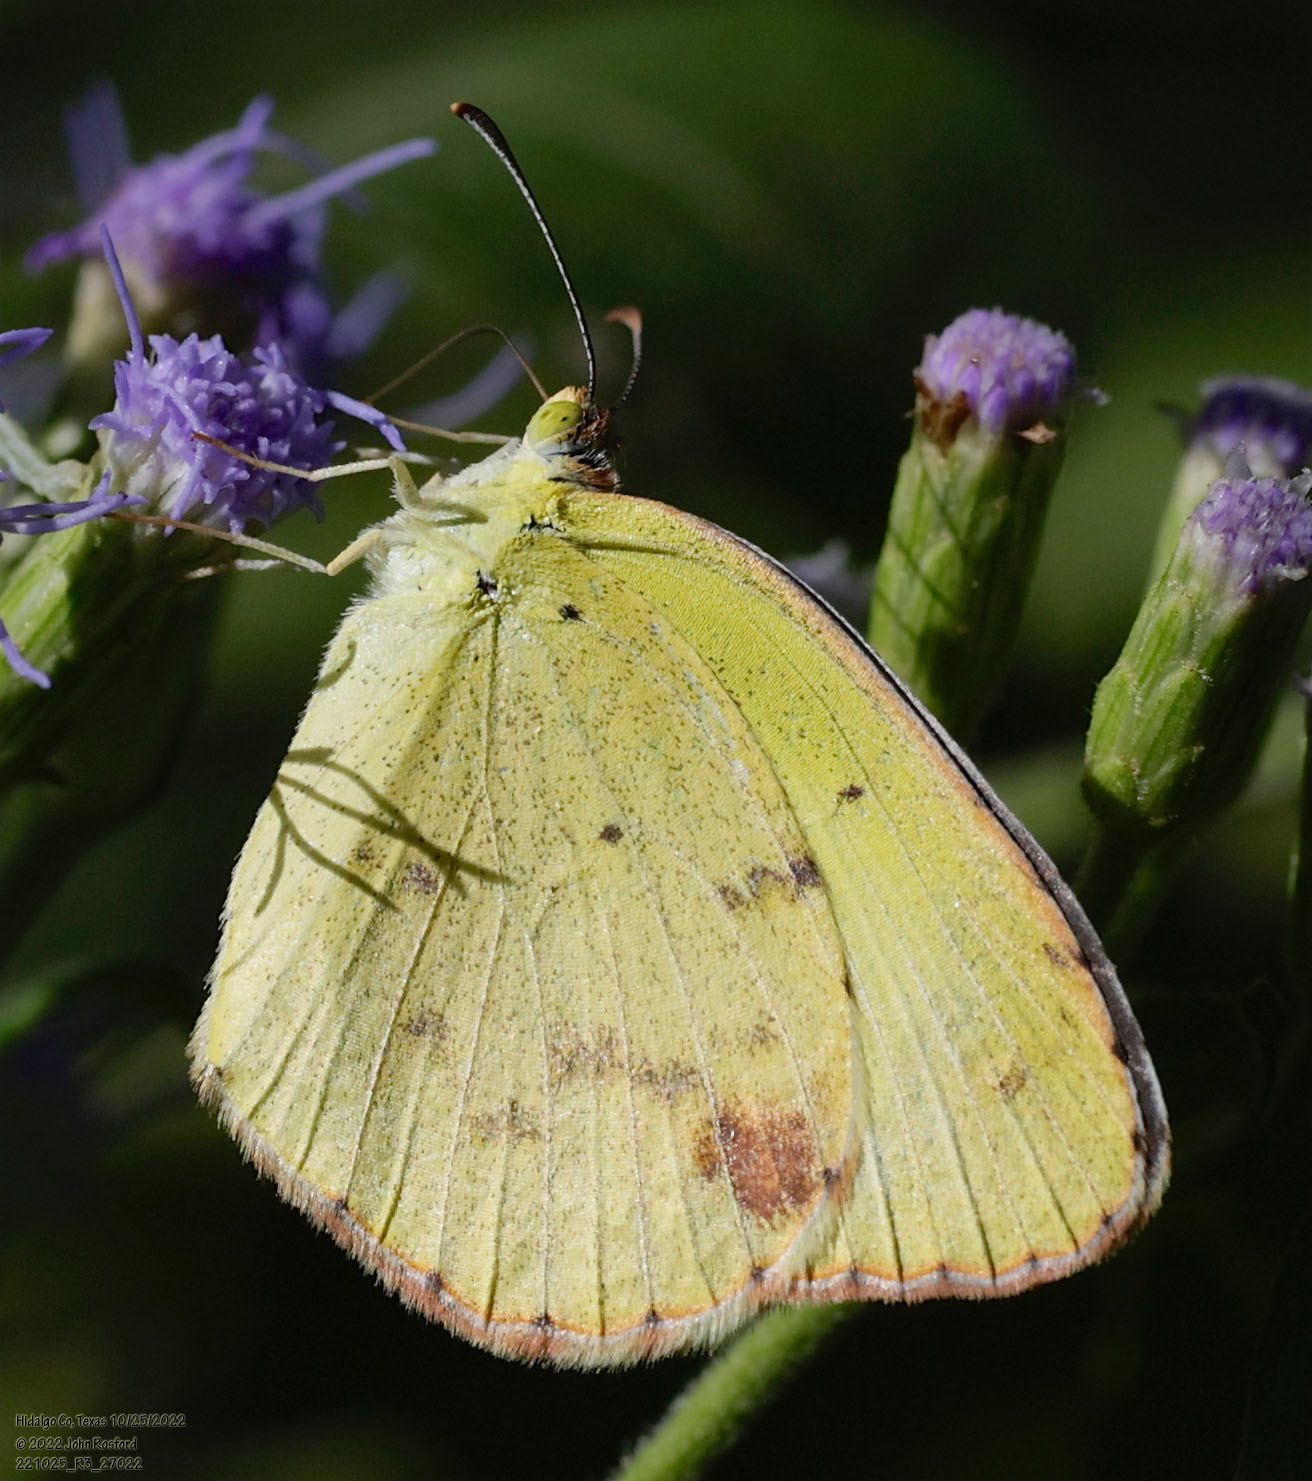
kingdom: Animalia
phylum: Arthropoda
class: Insecta
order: Lepidoptera
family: Pieridae
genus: Pyrisitia
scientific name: Pyrisitia lisa
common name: Little yellow
